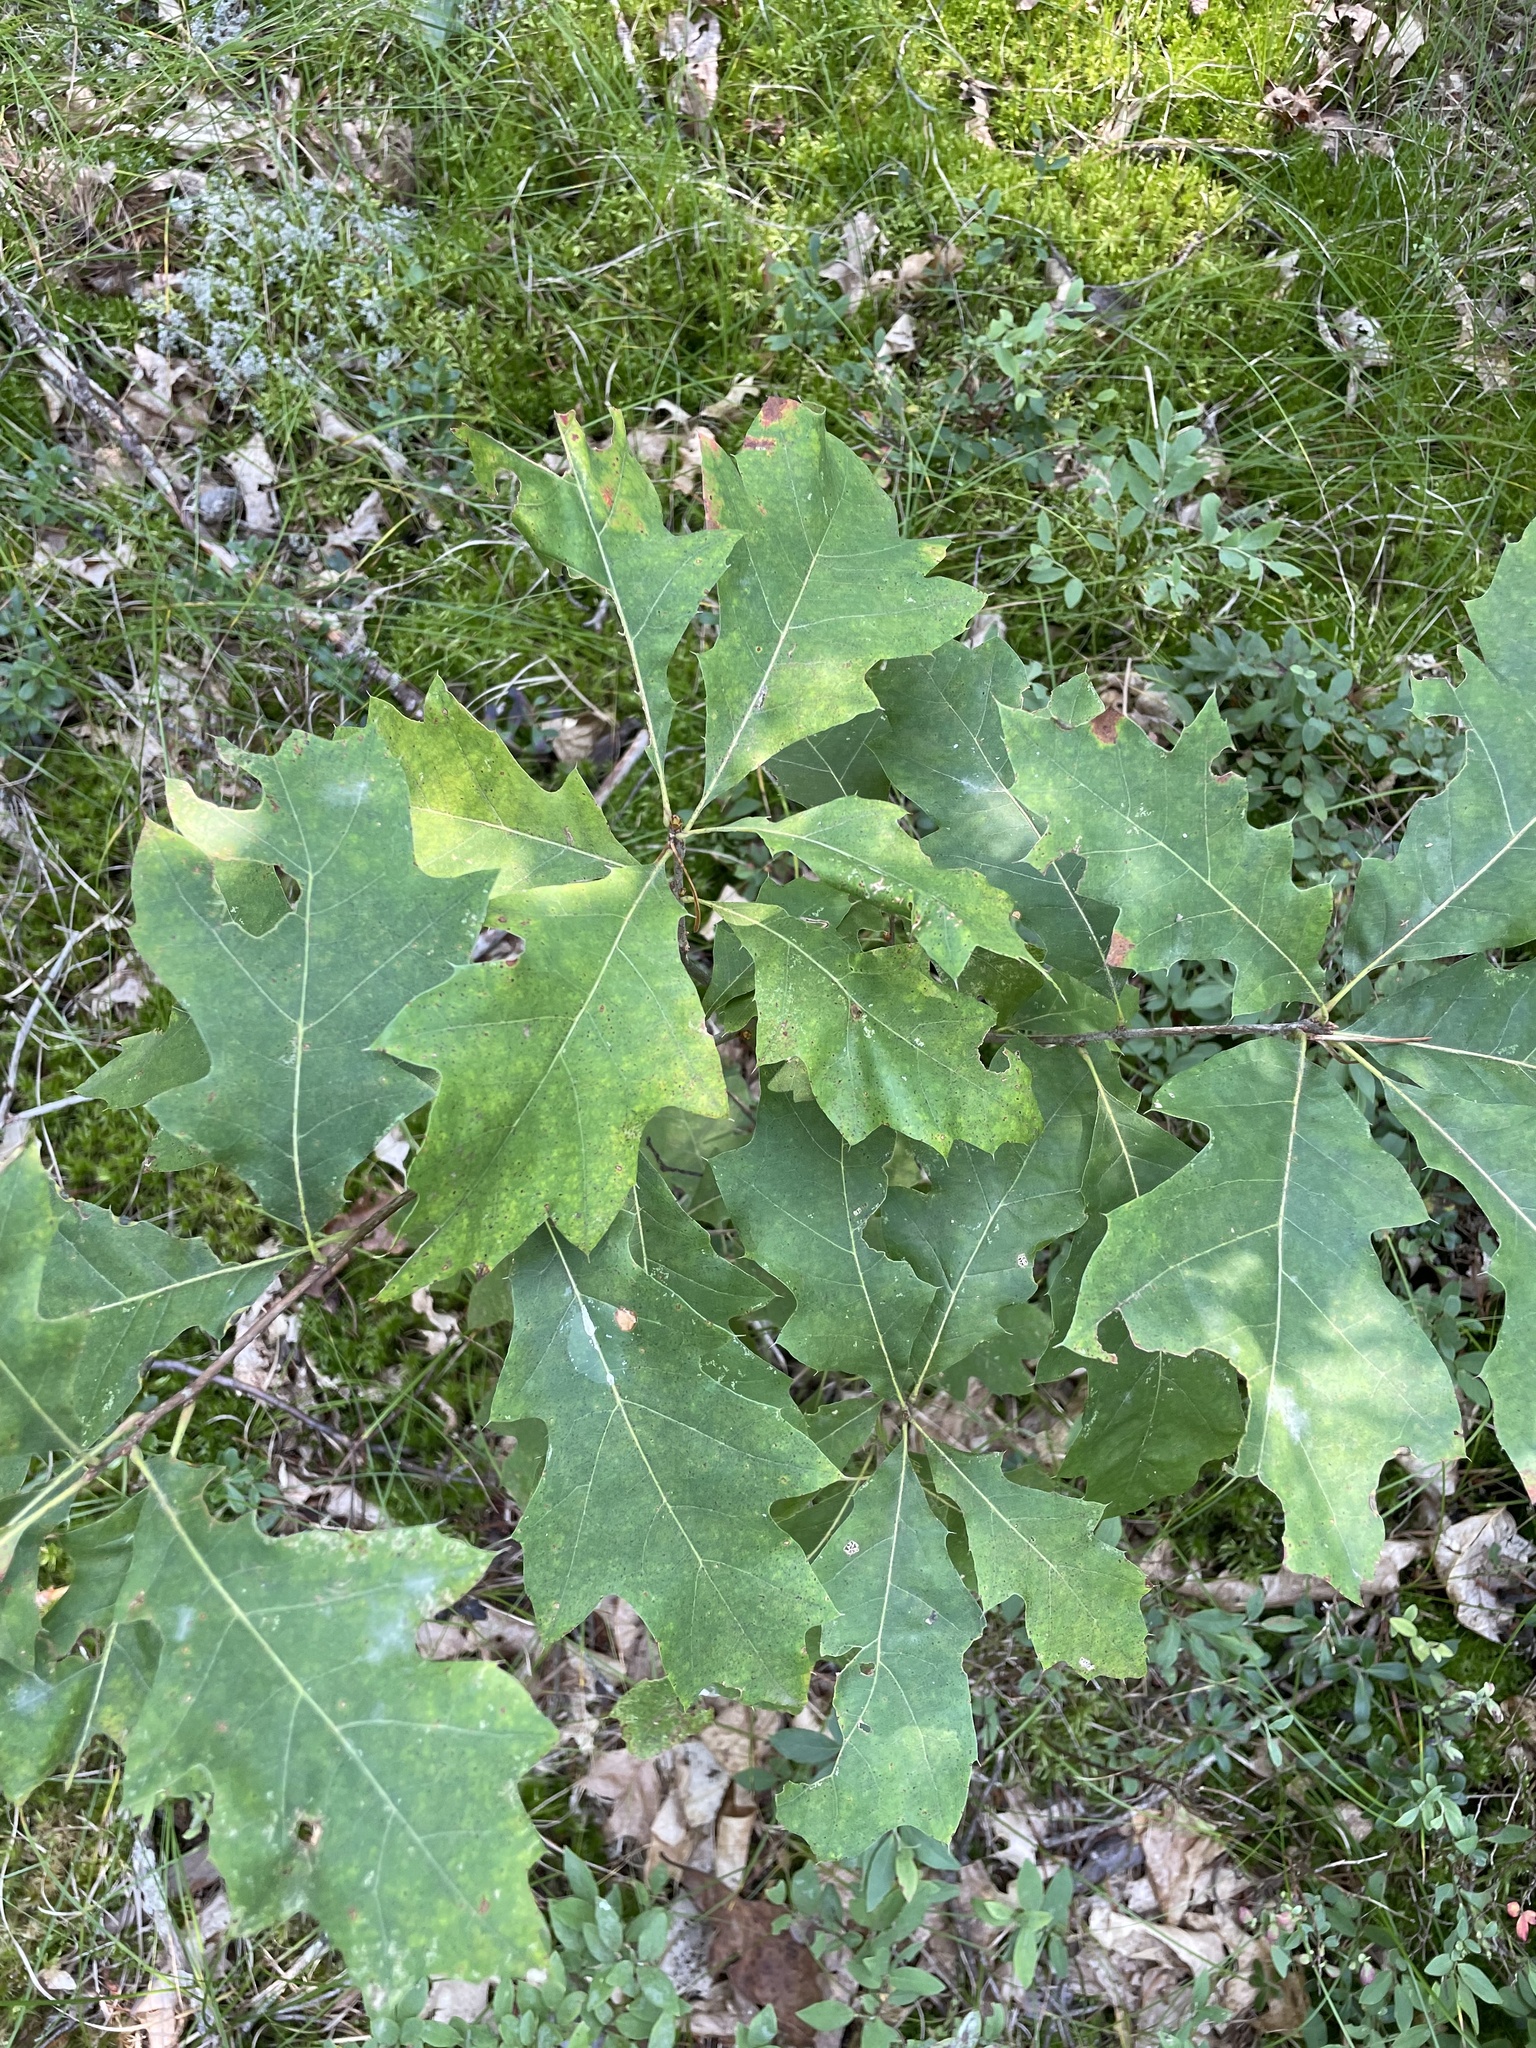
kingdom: Plantae
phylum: Tracheophyta
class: Magnoliopsida
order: Fagales
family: Fagaceae
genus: Quercus
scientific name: Quercus rubra
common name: Red oak
